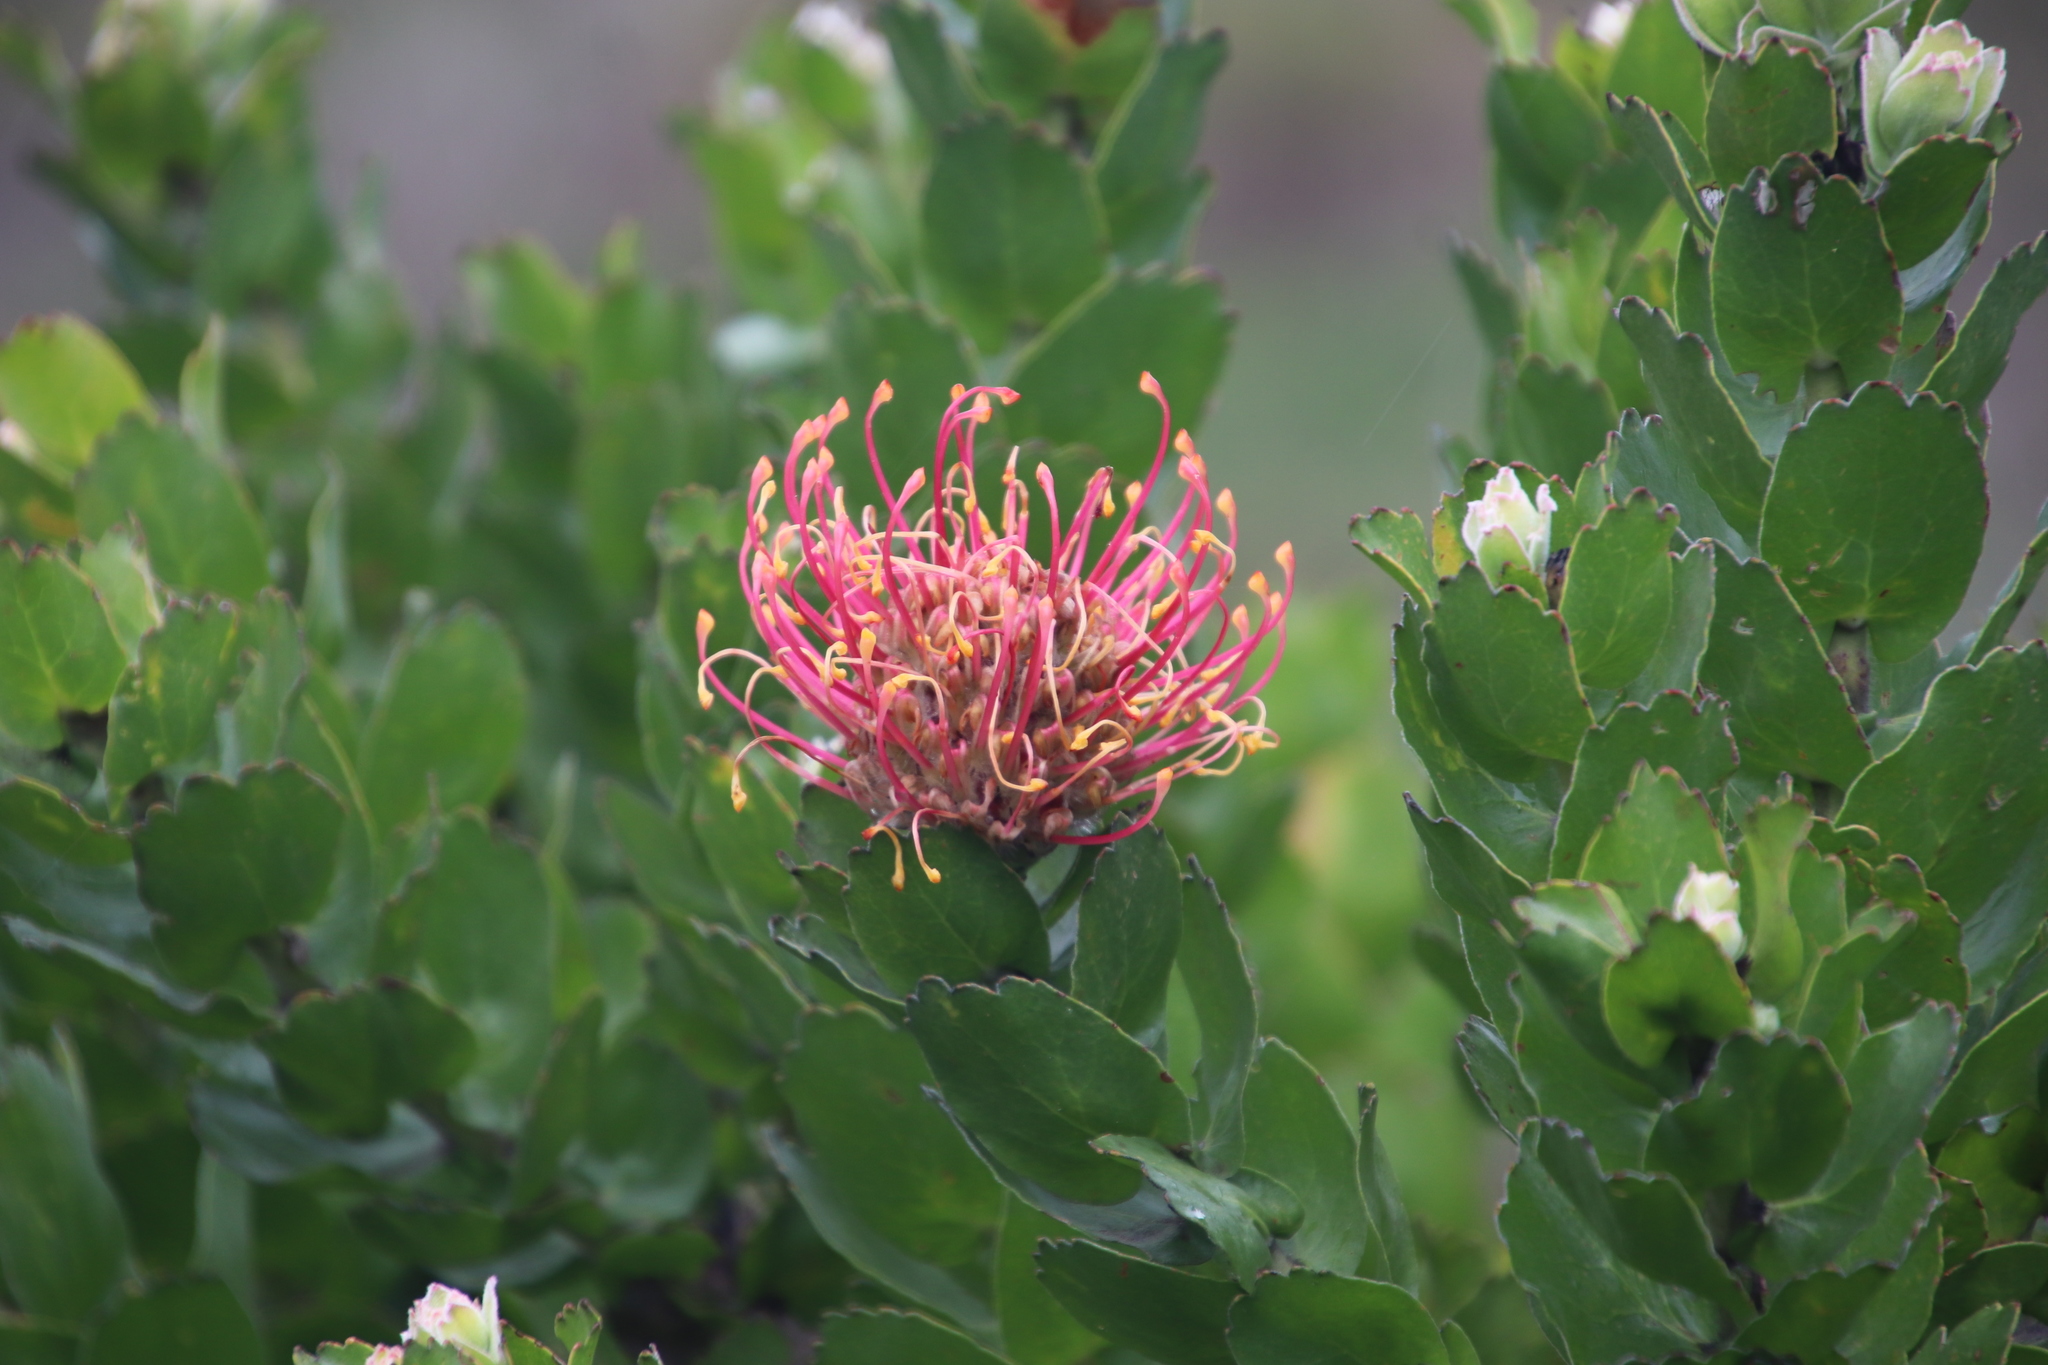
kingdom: Plantae
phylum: Tracheophyta
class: Magnoliopsida
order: Proteales
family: Proteaceae
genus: Leucospermum
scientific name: Leucospermum patersonii
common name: False tree pincushion
